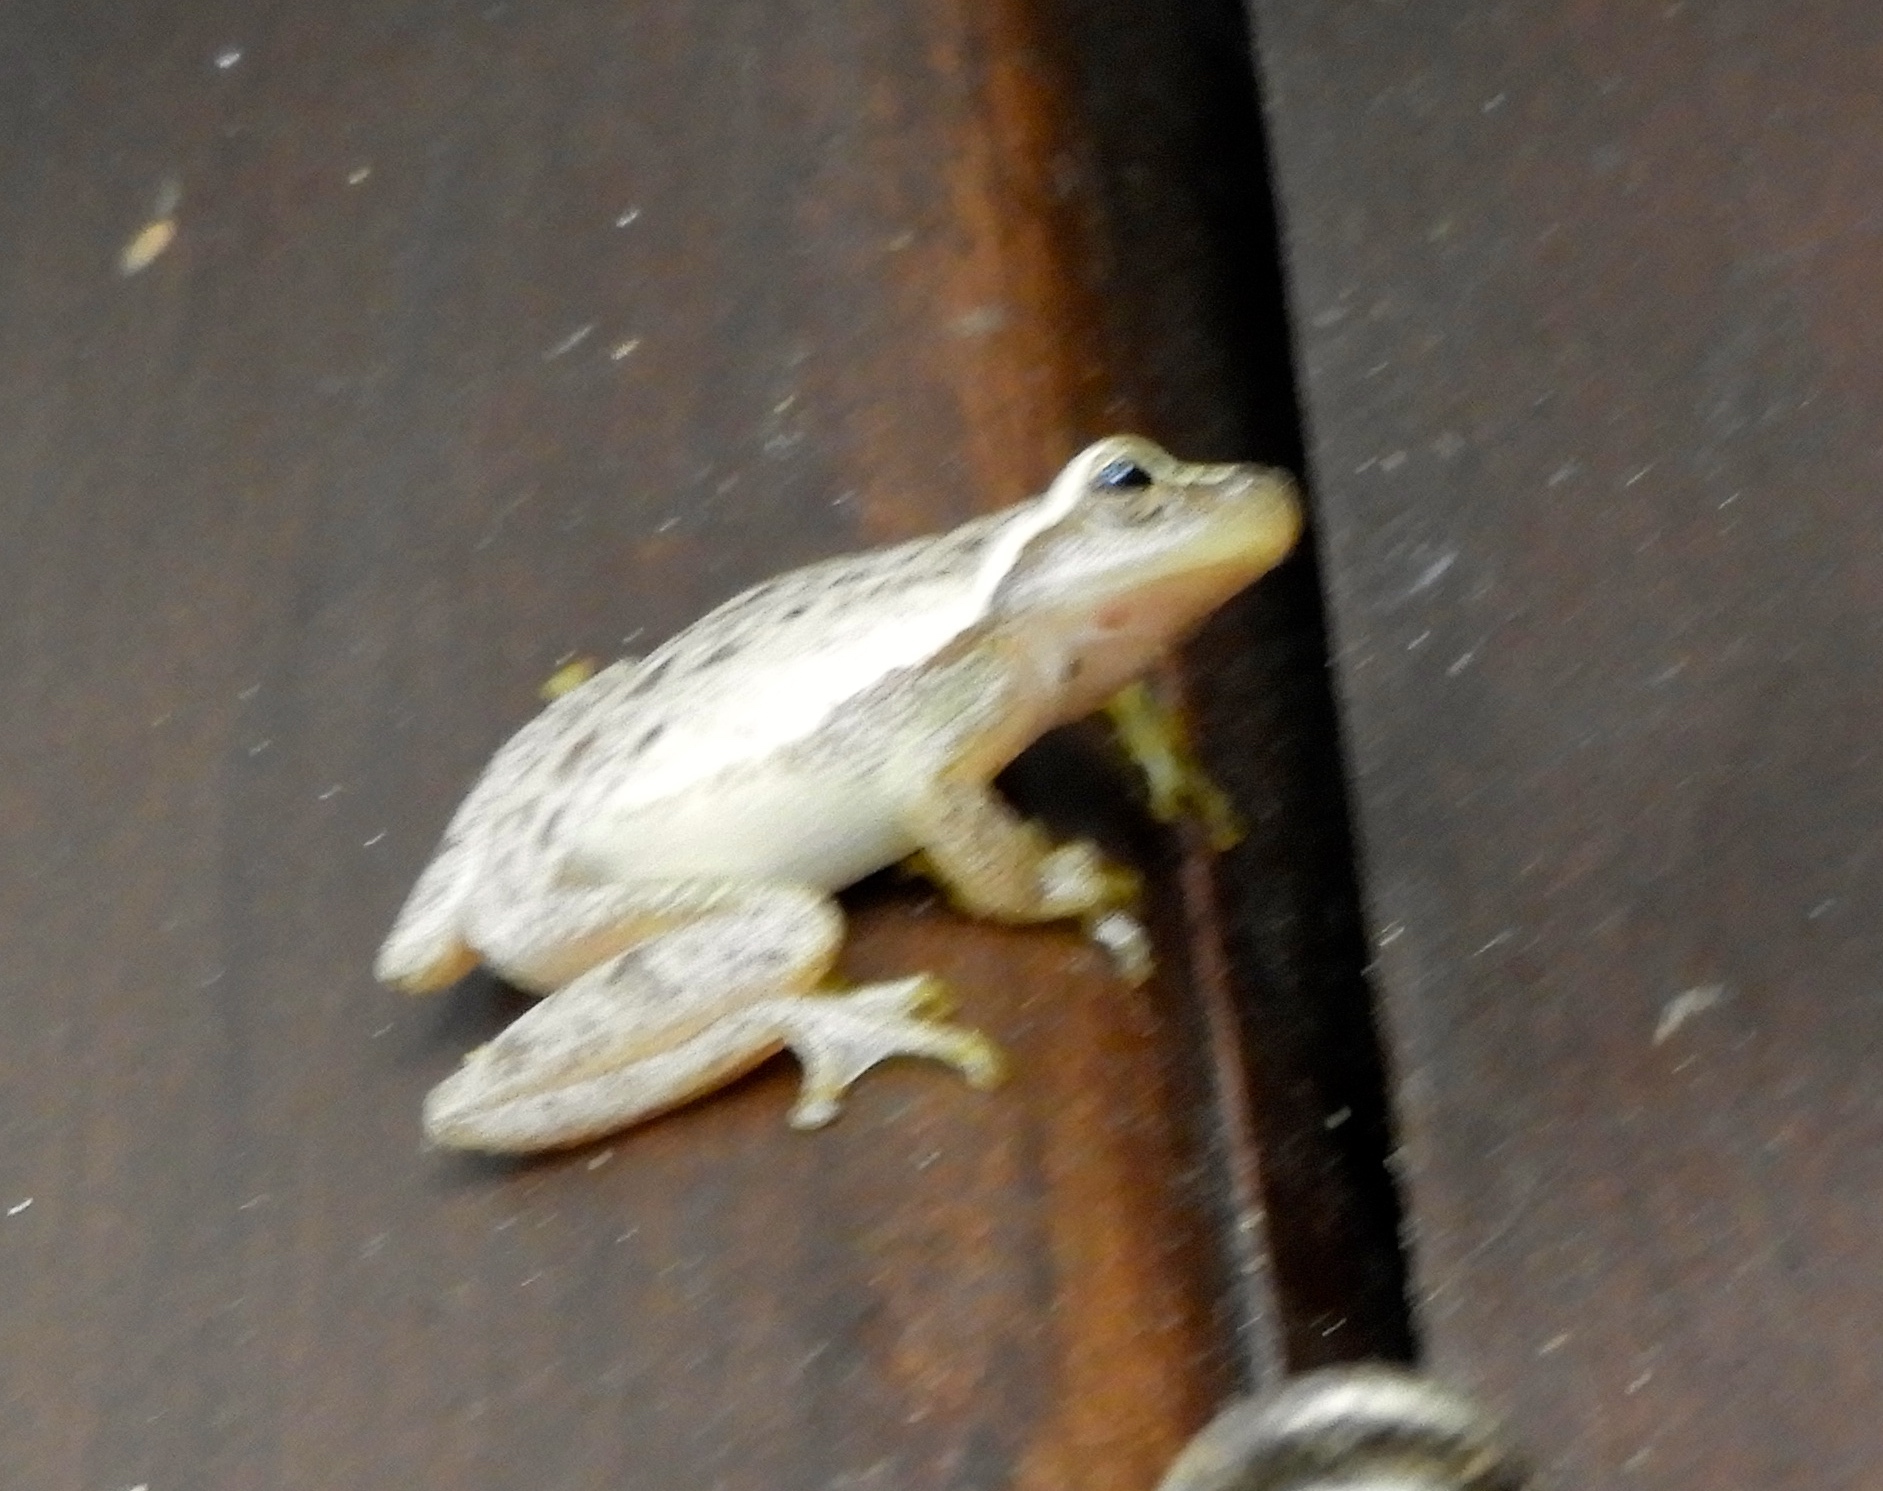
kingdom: Animalia
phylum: Chordata
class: Amphibia
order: Anura
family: Hylidae
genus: Tlalocohyla
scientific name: Tlalocohyla smithii
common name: Dwarf mexican treefrog
